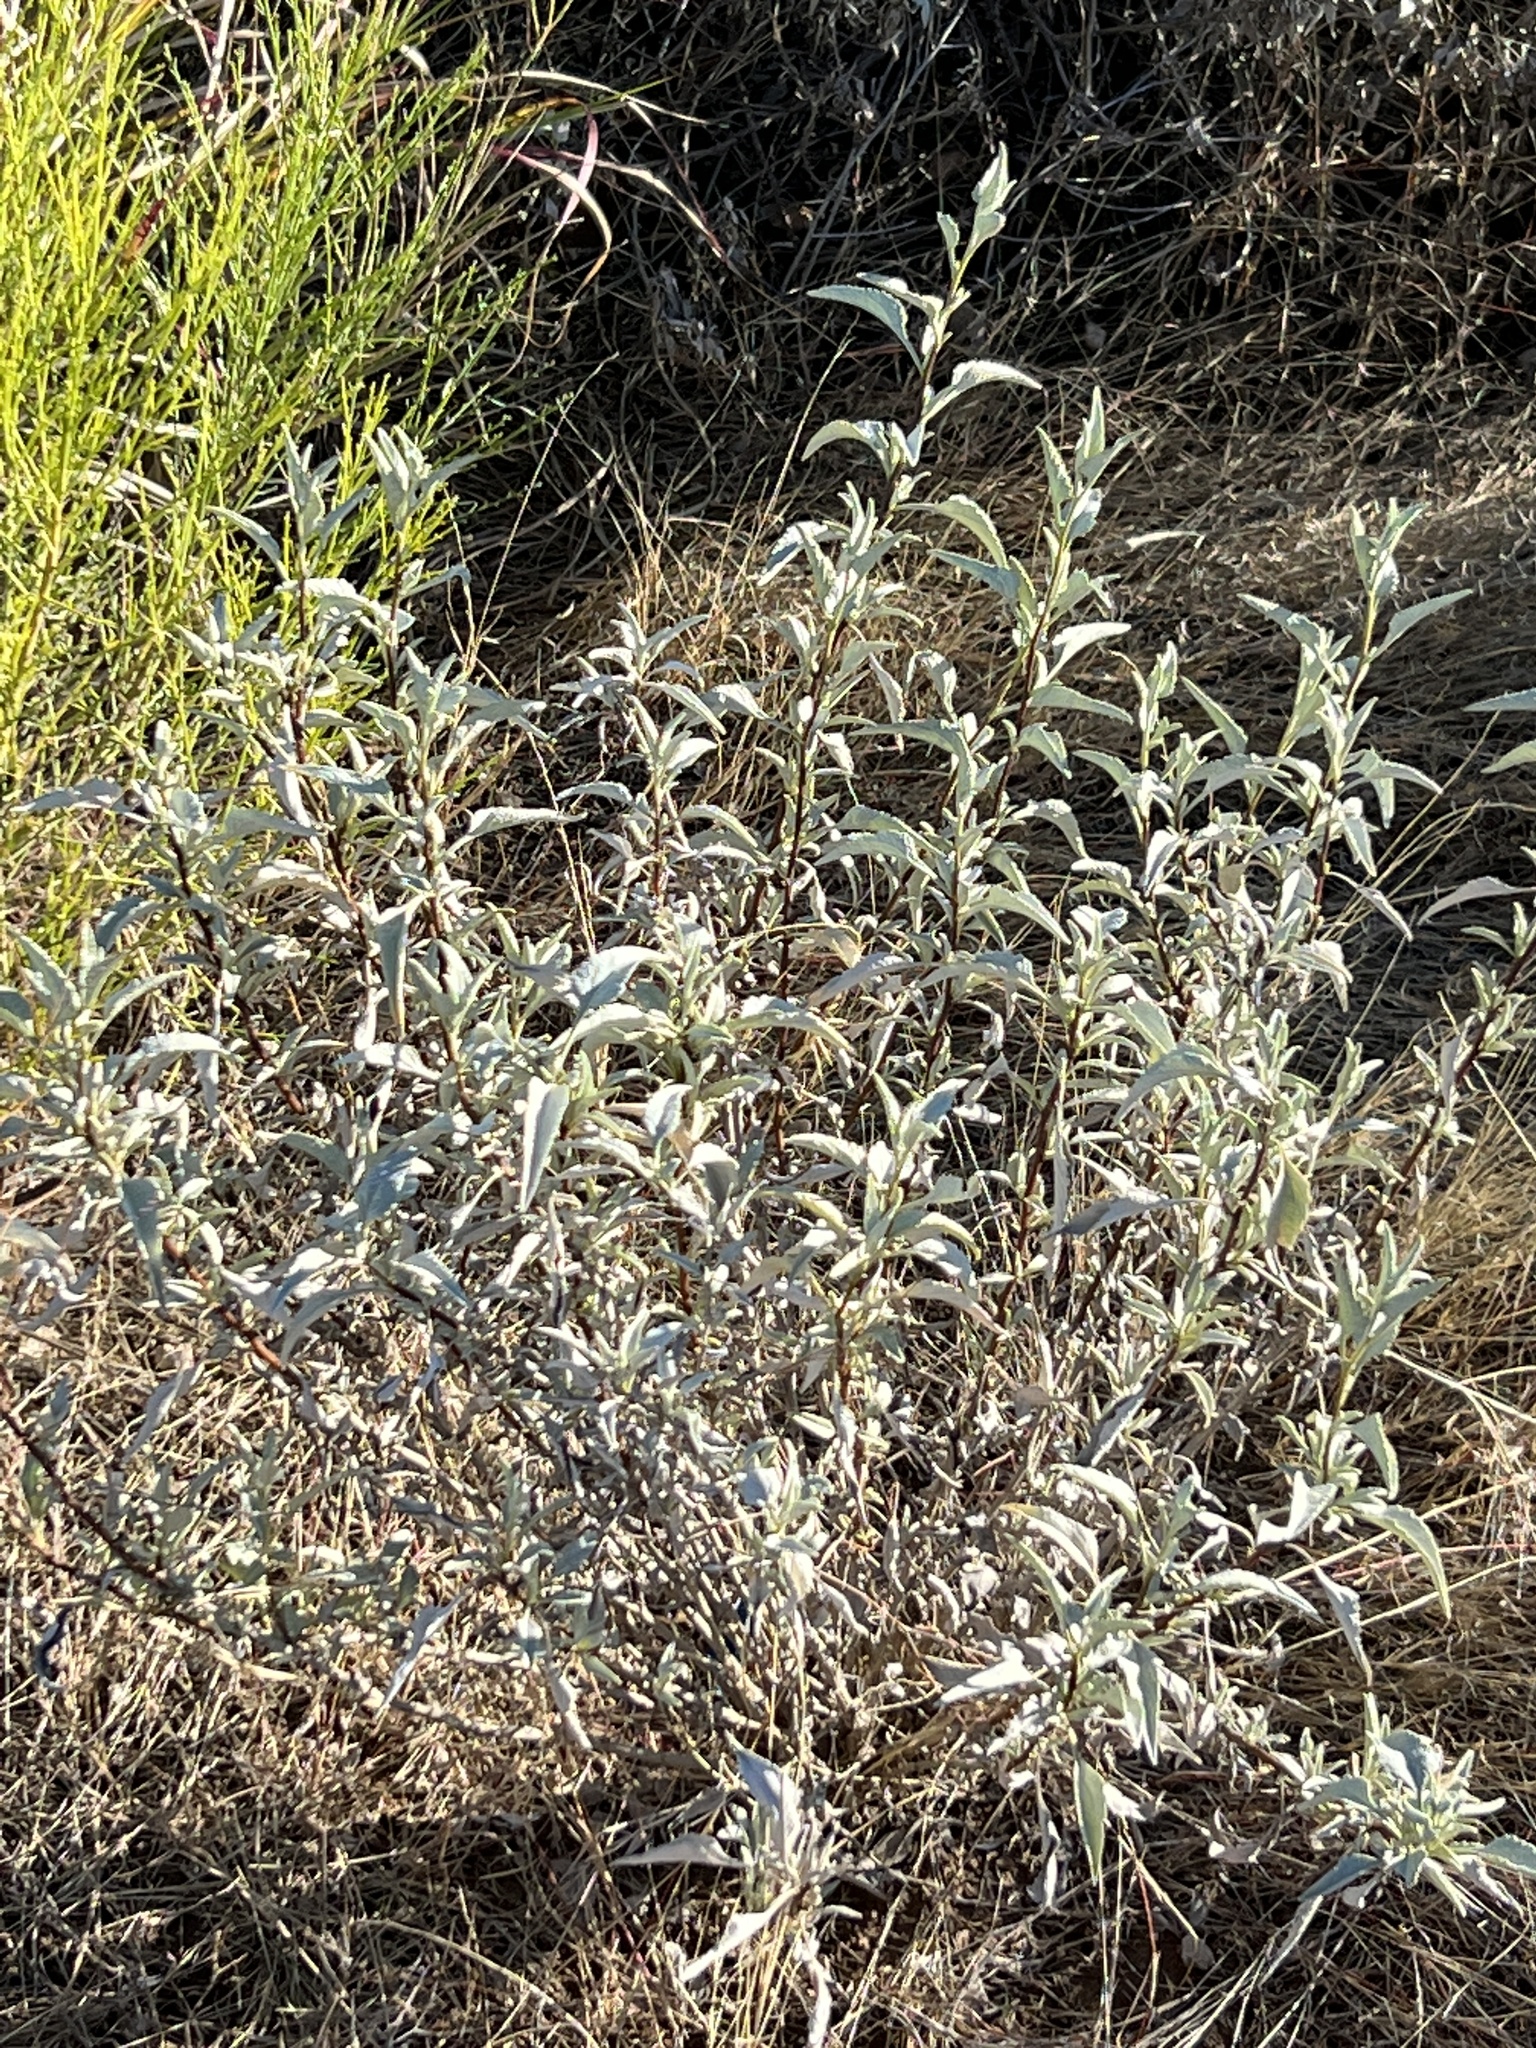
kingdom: Plantae
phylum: Tracheophyta
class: Magnoliopsida
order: Asterales
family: Asteraceae
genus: Encelia
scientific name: Encelia farinosa
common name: Brittlebush
